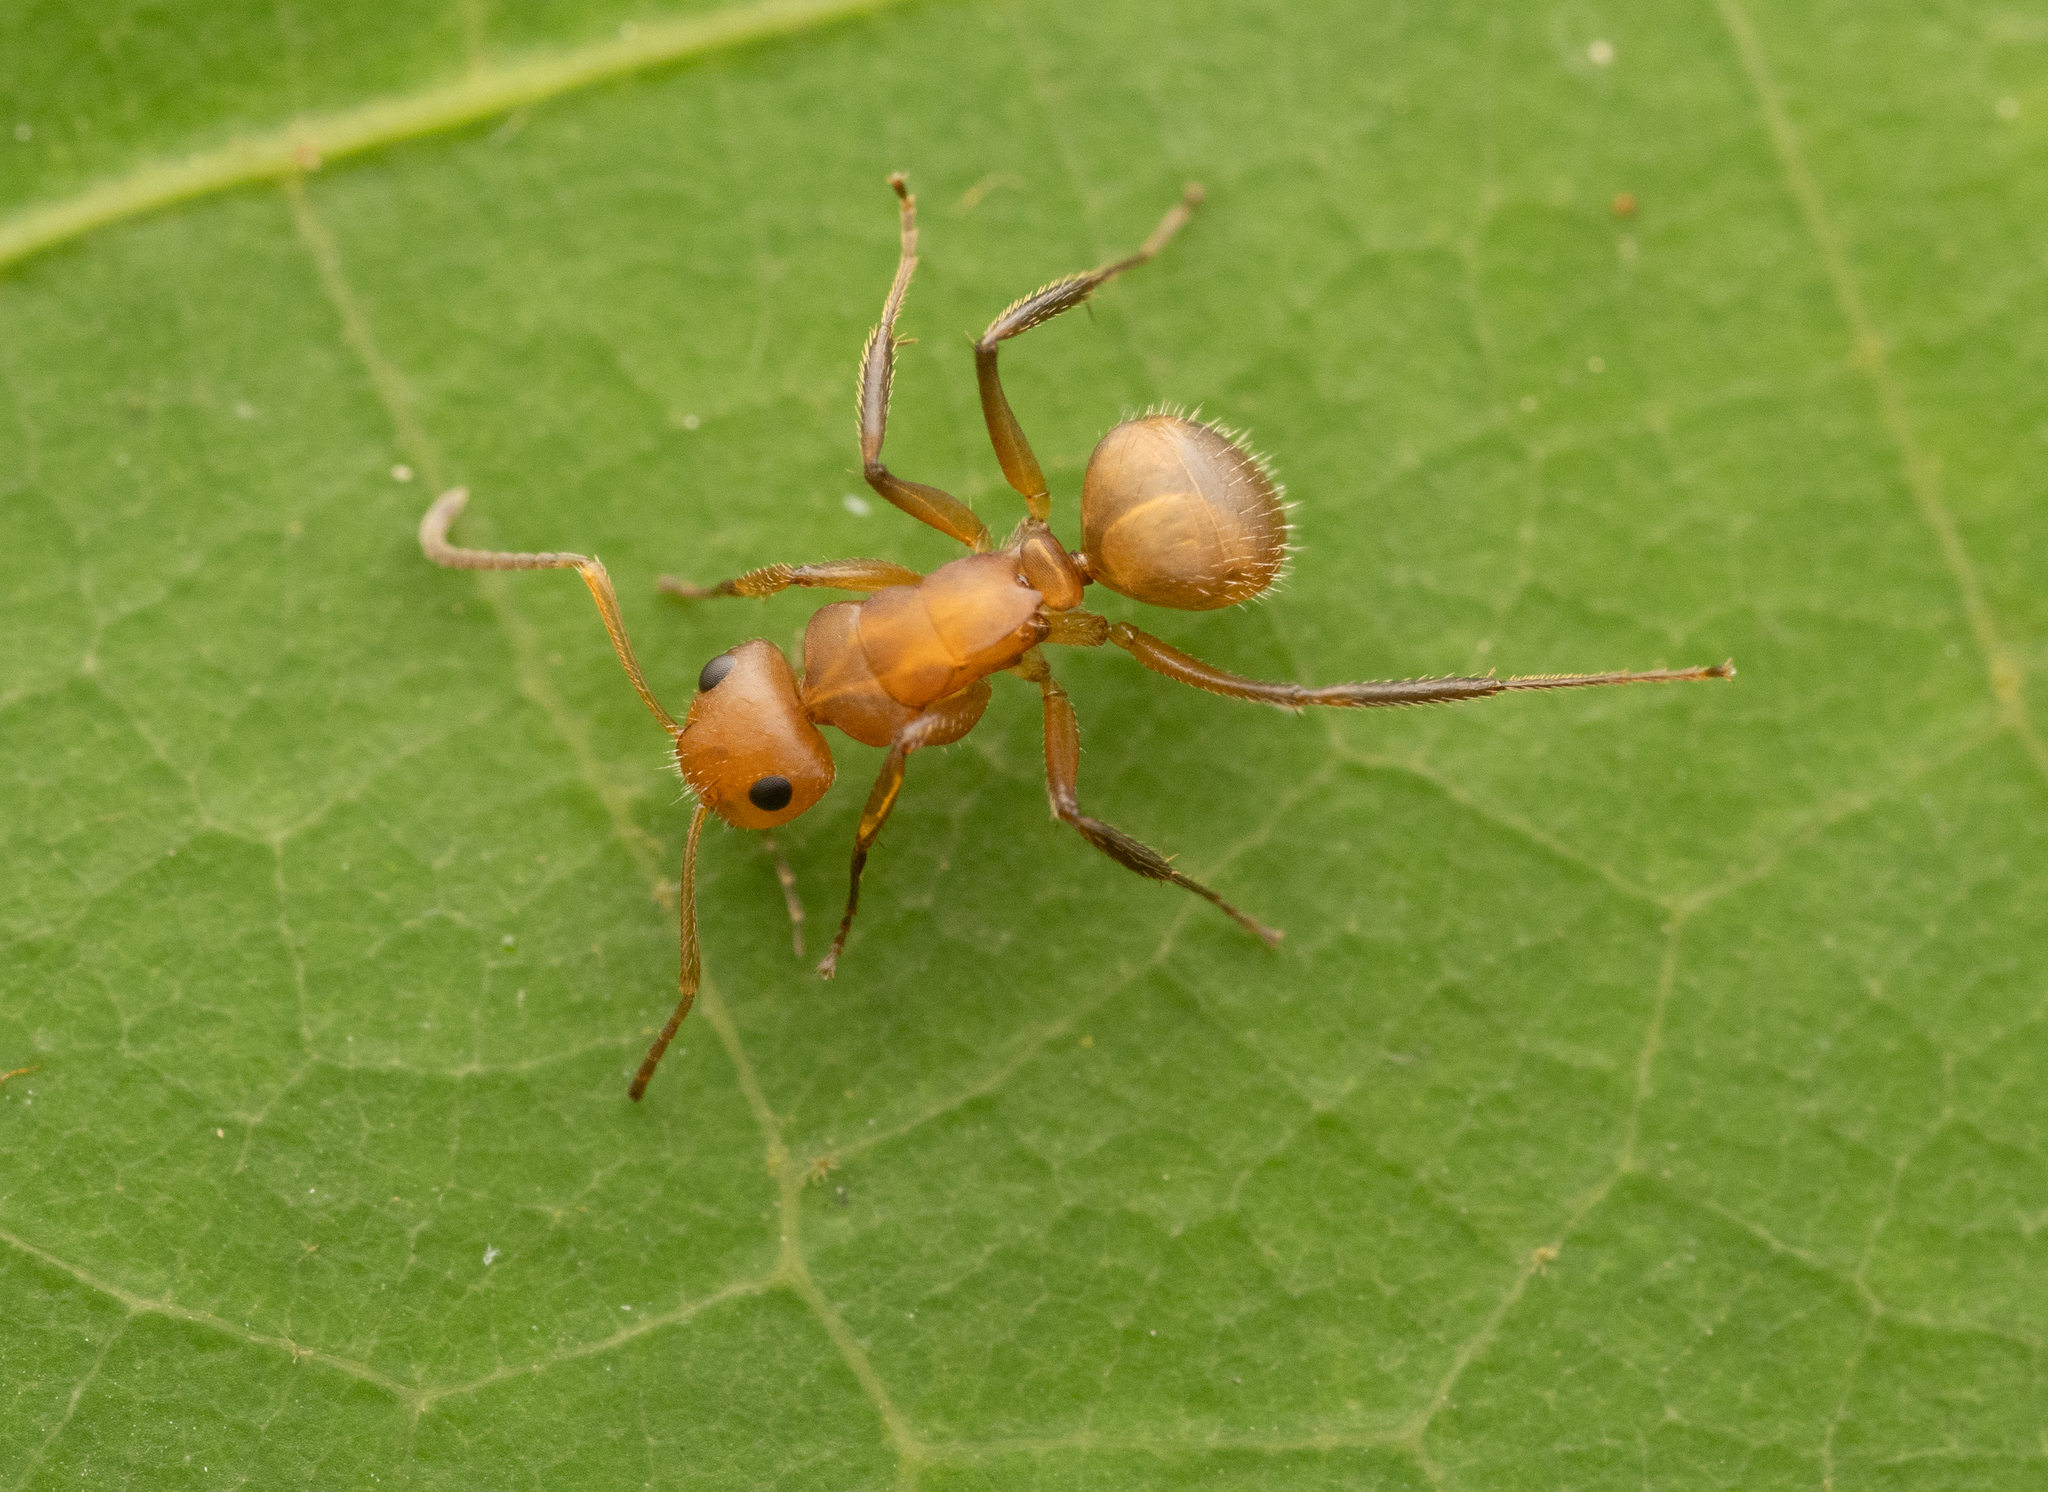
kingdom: Animalia
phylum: Arthropoda
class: Insecta
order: Hymenoptera
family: Formicidae
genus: Camponotus
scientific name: Camponotus latangulus
